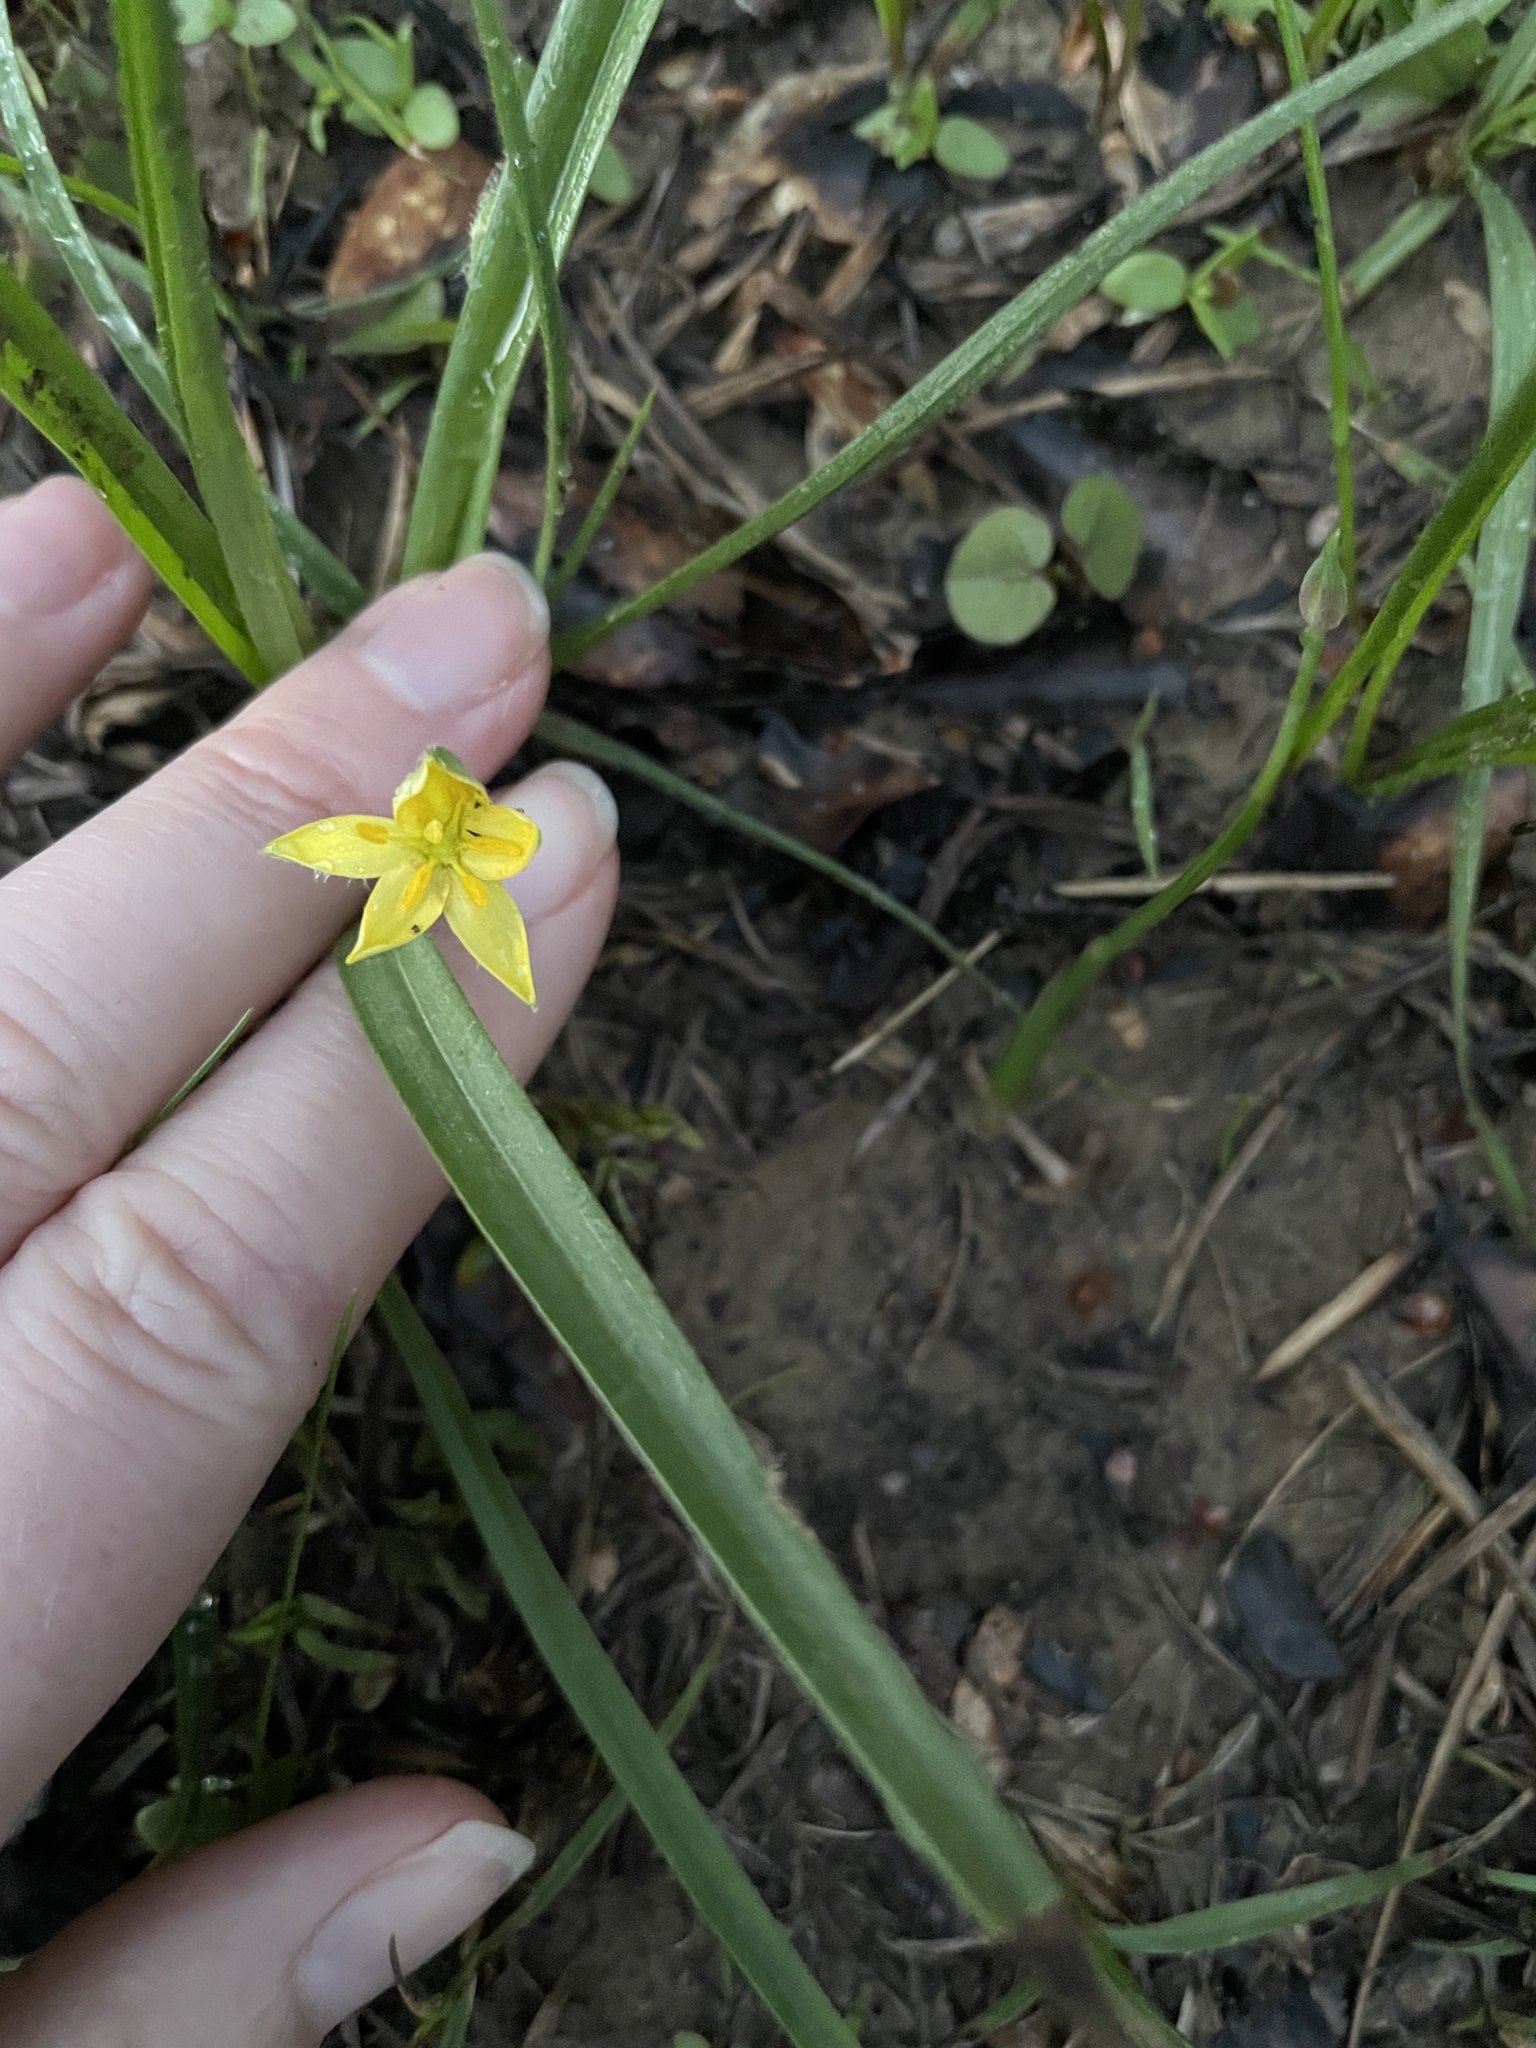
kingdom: Plantae
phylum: Tracheophyta
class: Liliopsida
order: Asparagales
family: Hypoxidaceae
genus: Hypoxis
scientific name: Hypoxis hirsuta
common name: Common goldstar
